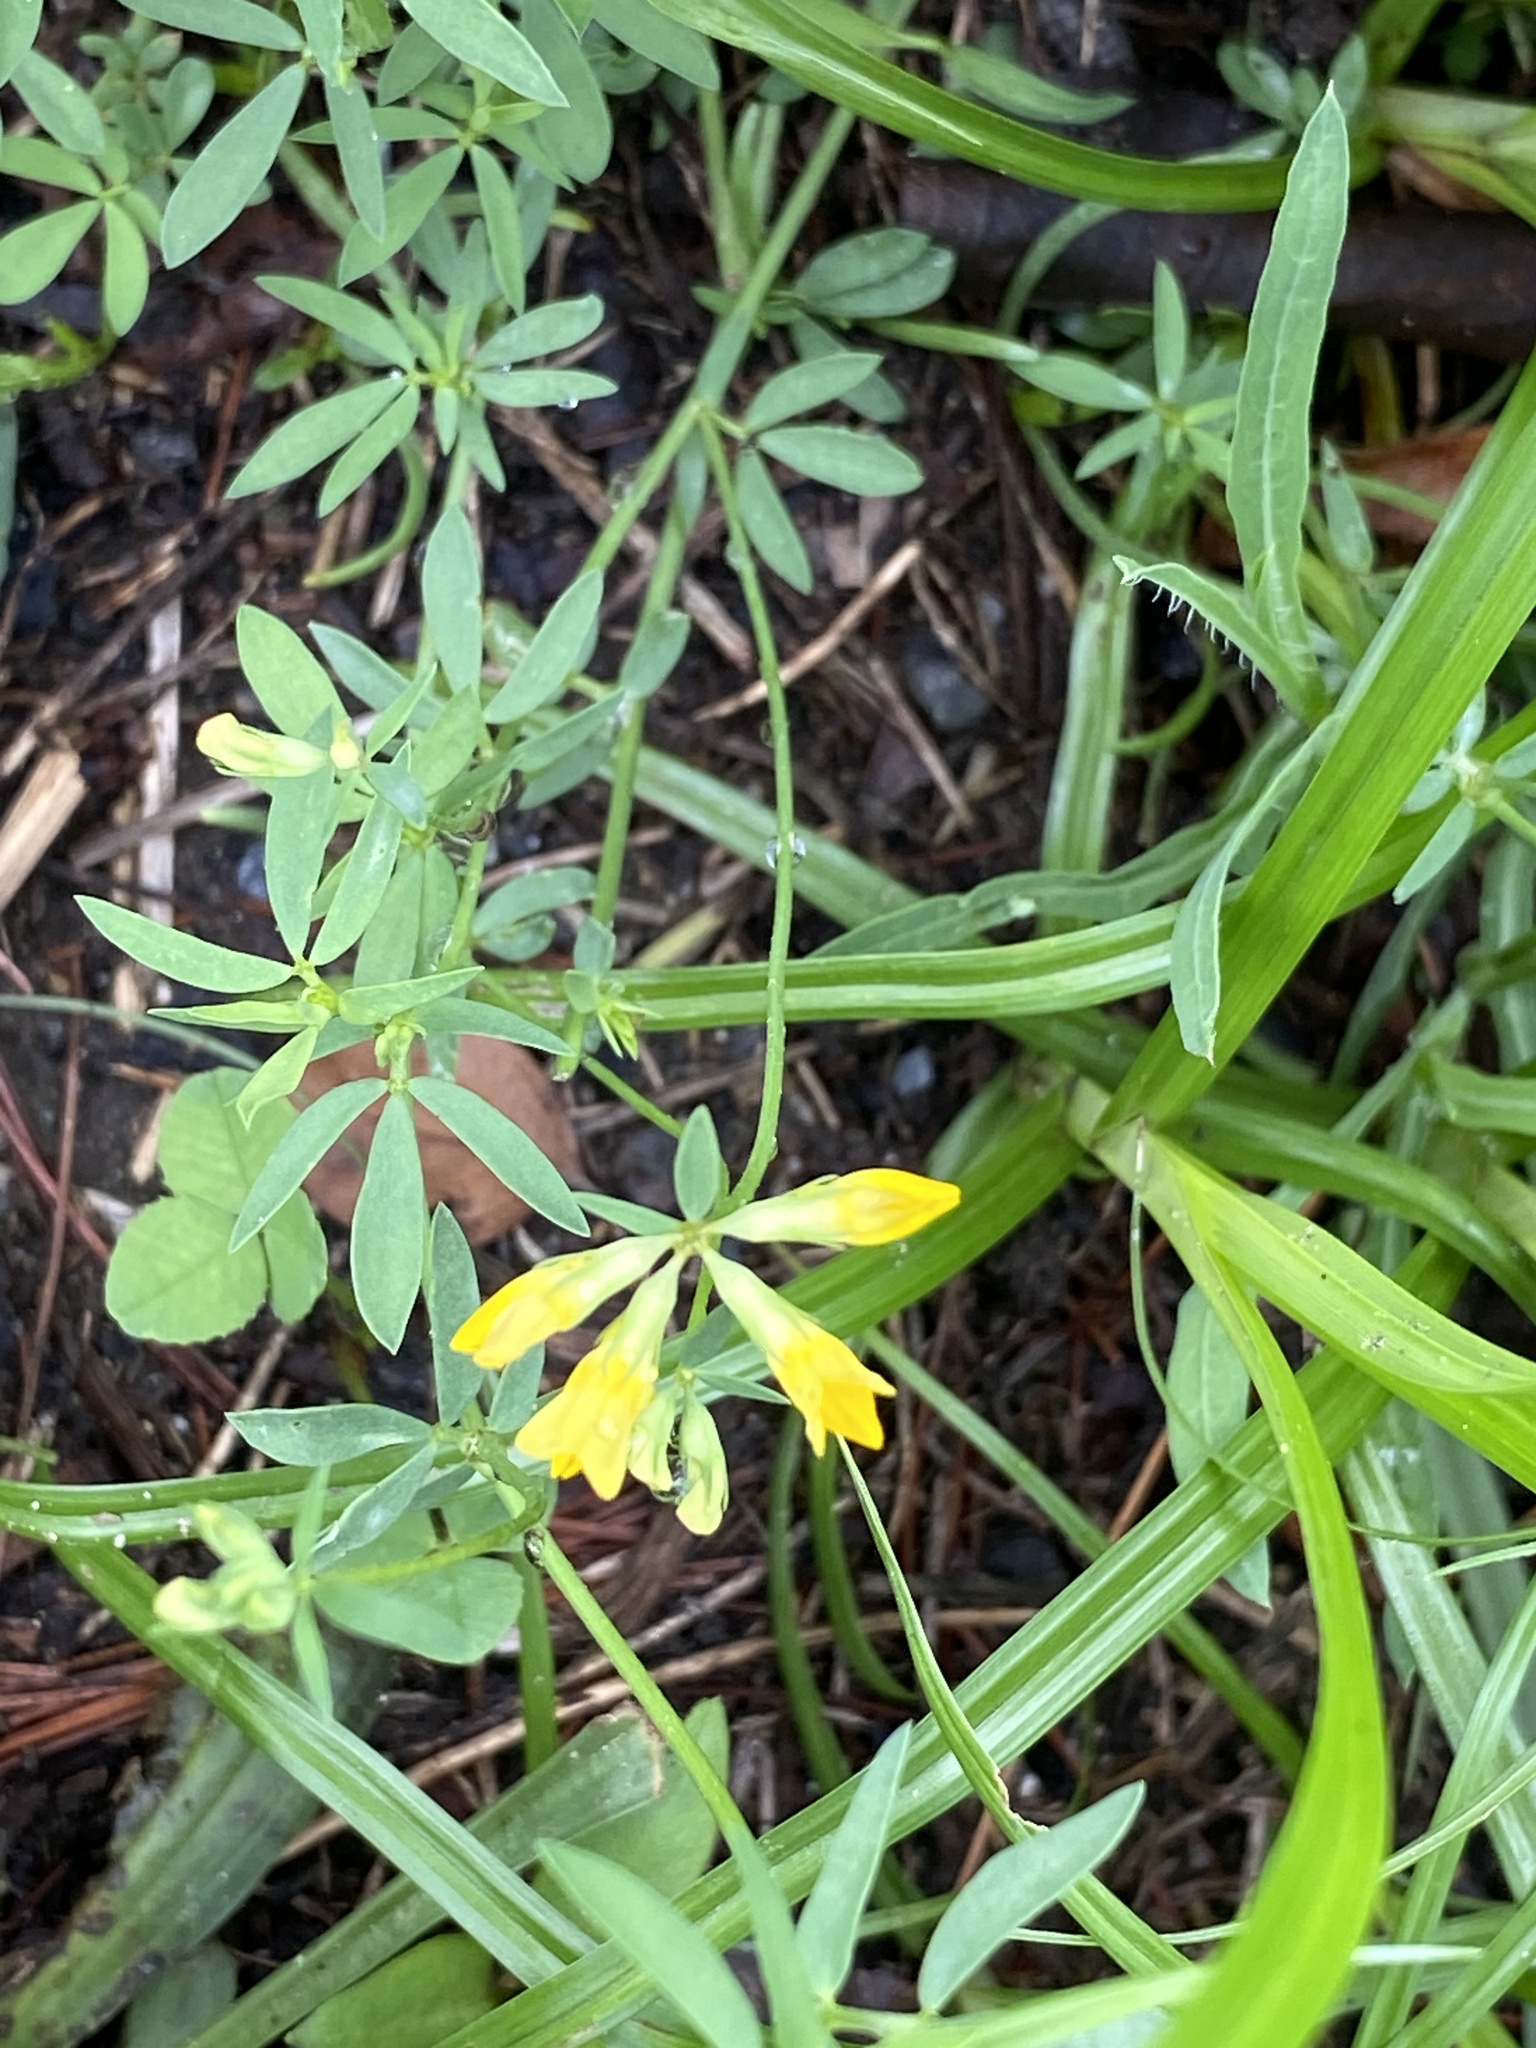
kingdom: Plantae
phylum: Tracheophyta
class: Magnoliopsida
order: Fabales
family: Fabaceae
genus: Lotus
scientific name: Lotus tenuis
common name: Narrow-leaved bird's-foot-trefoil
